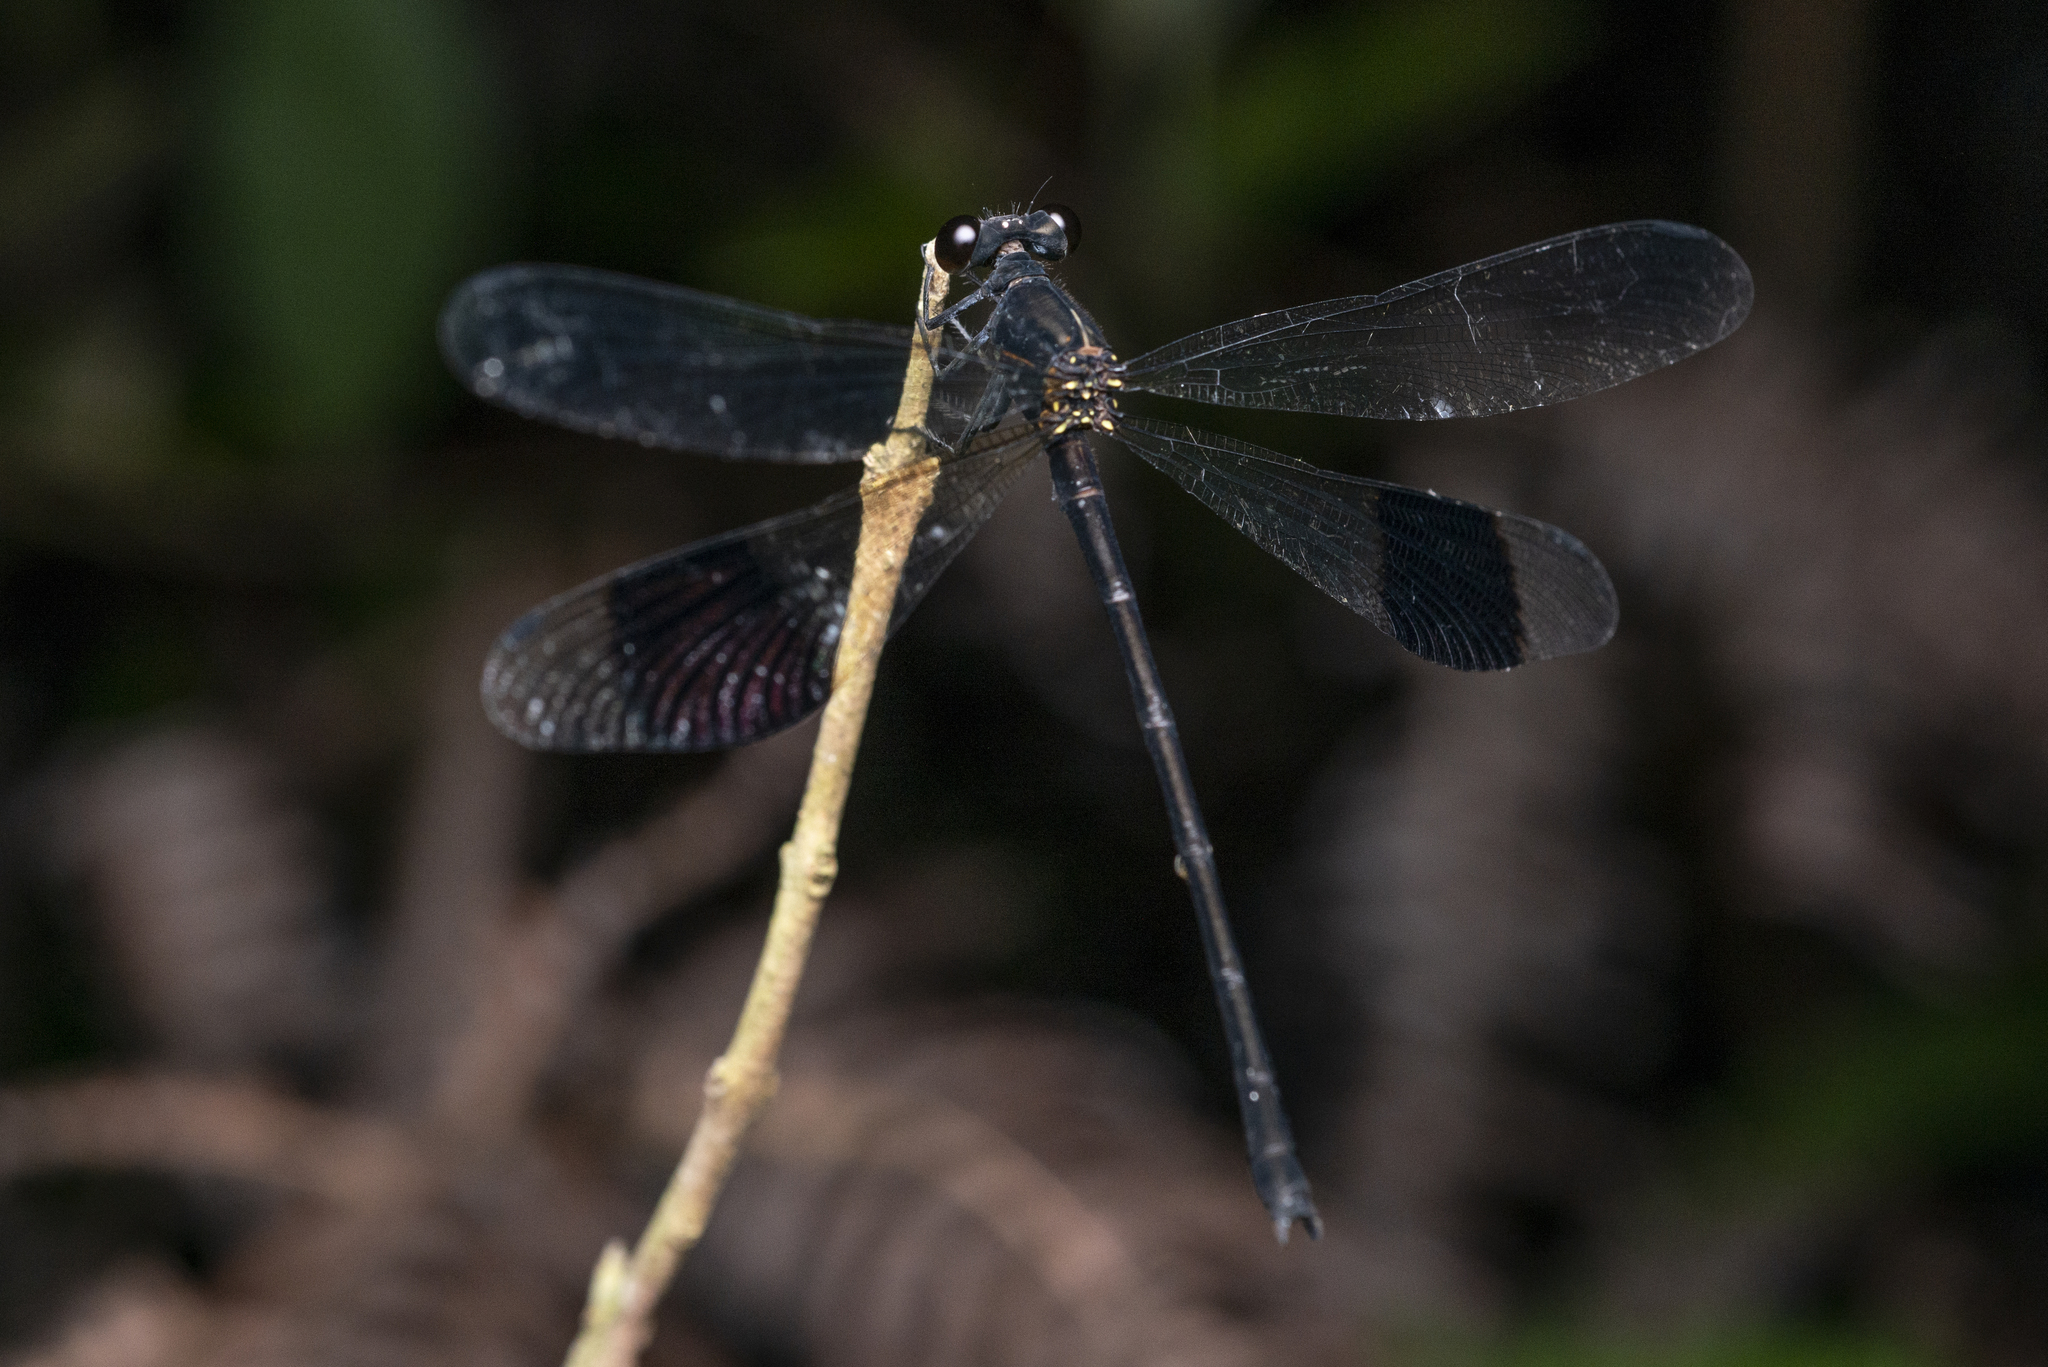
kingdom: Animalia
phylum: Arthropoda
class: Insecta
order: Odonata
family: Euphaeidae
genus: Euphaea
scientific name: Euphaea decorata
